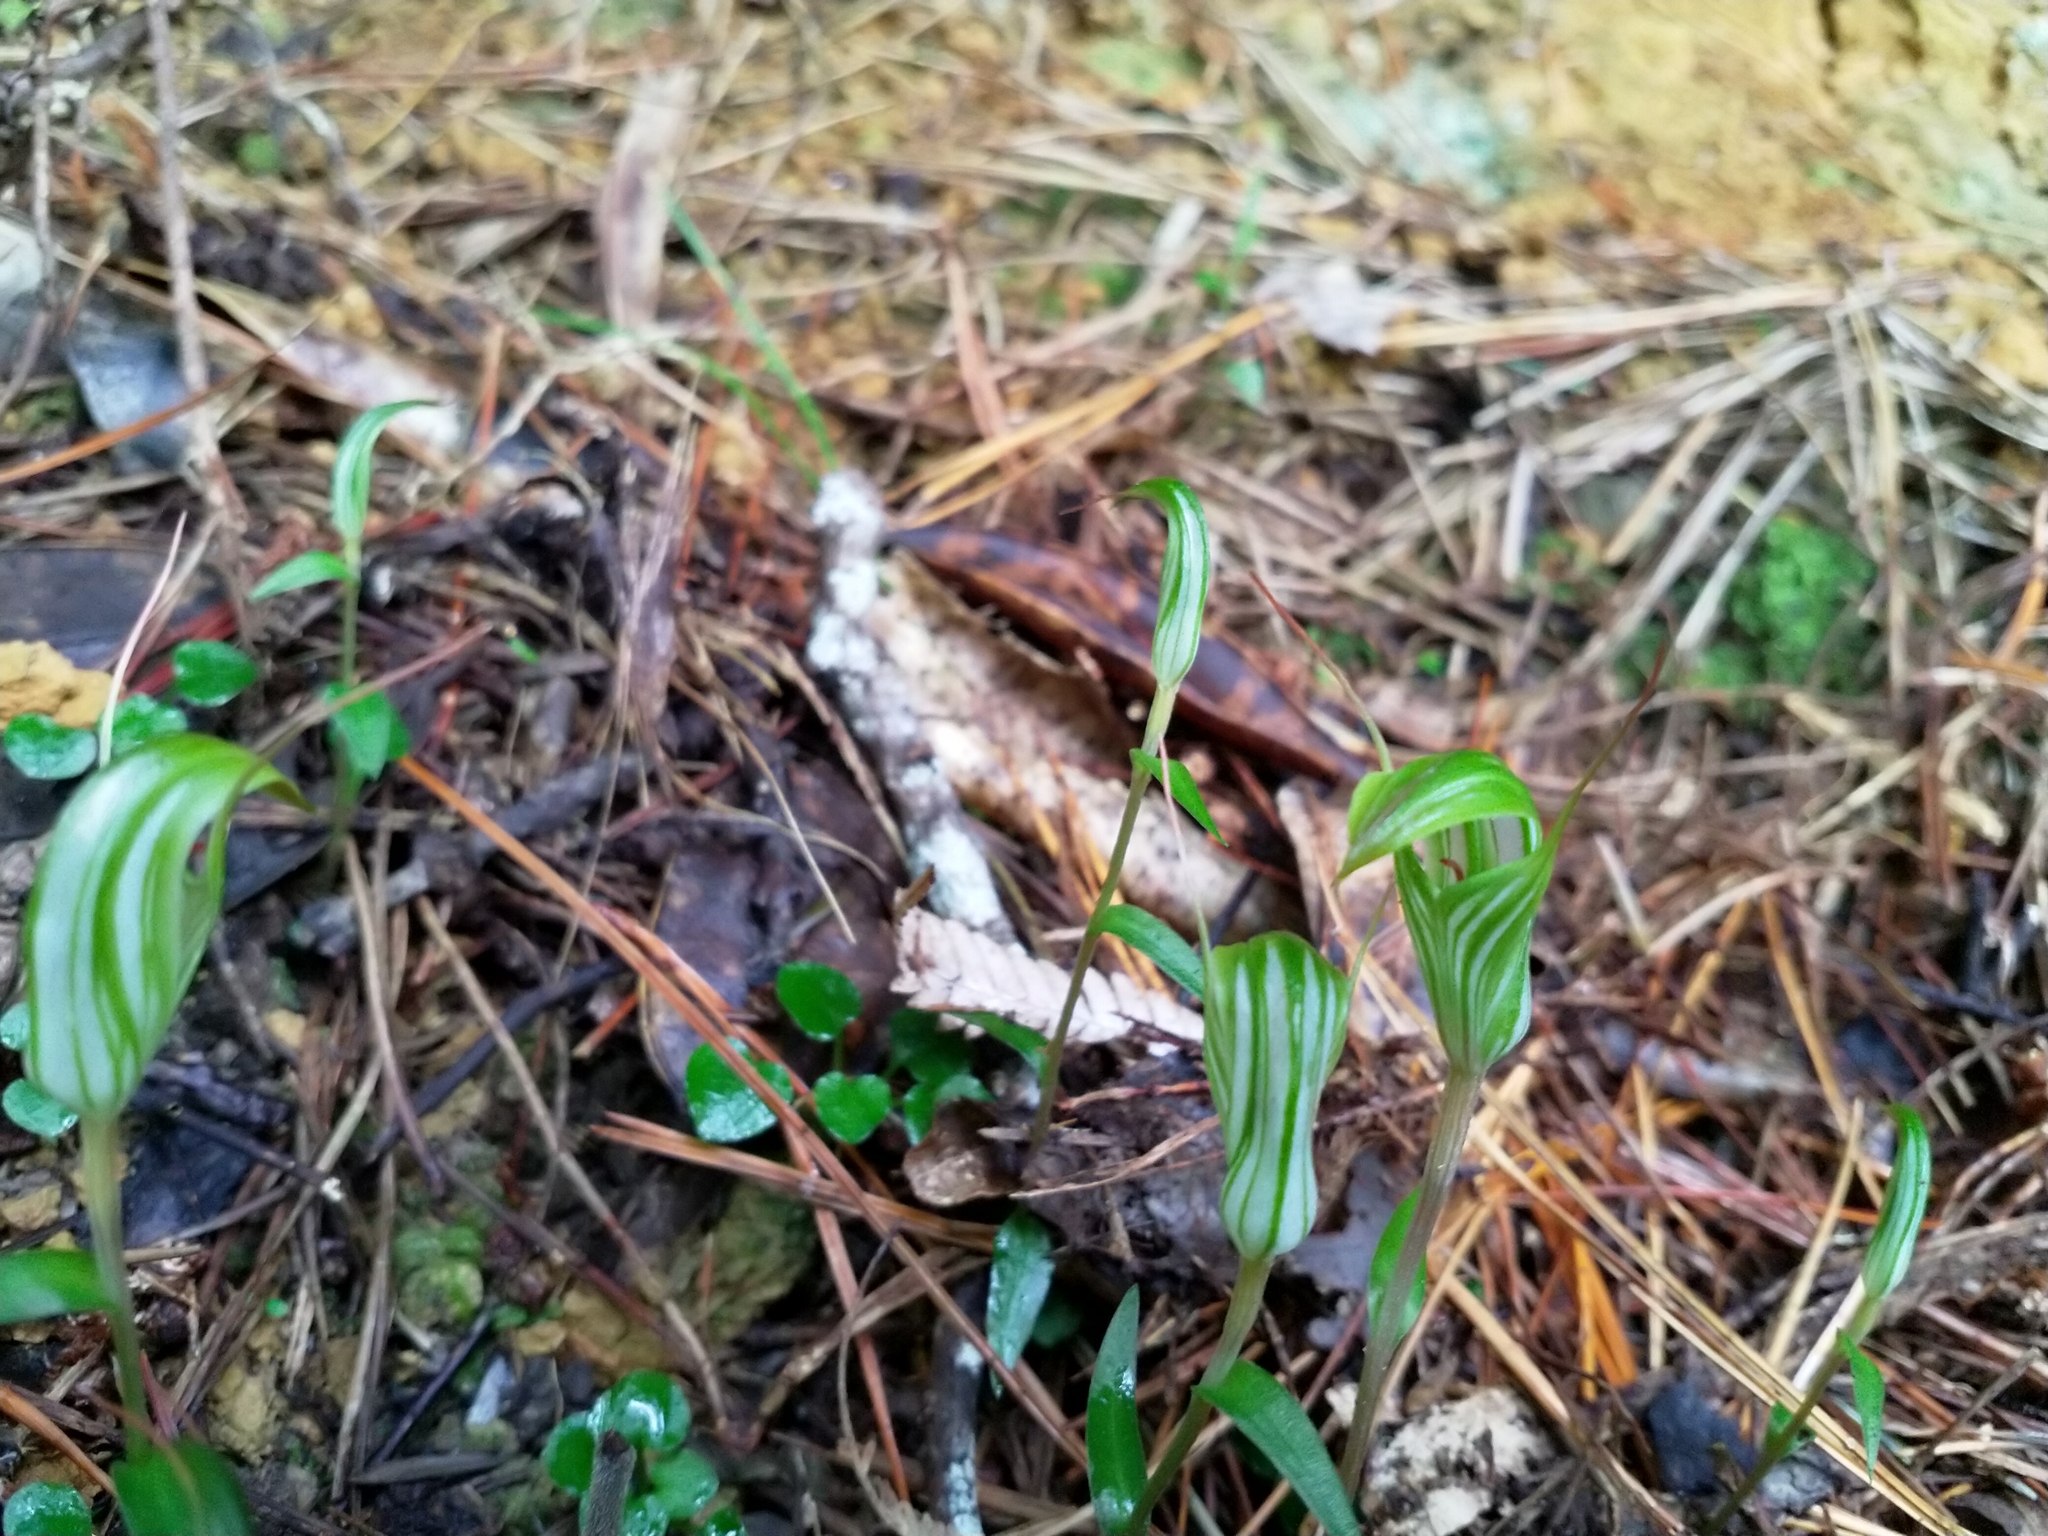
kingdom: Plantae
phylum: Tracheophyta
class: Liliopsida
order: Asparagales
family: Orchidaceae
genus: Pterostylis
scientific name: Pterostylis alobula
